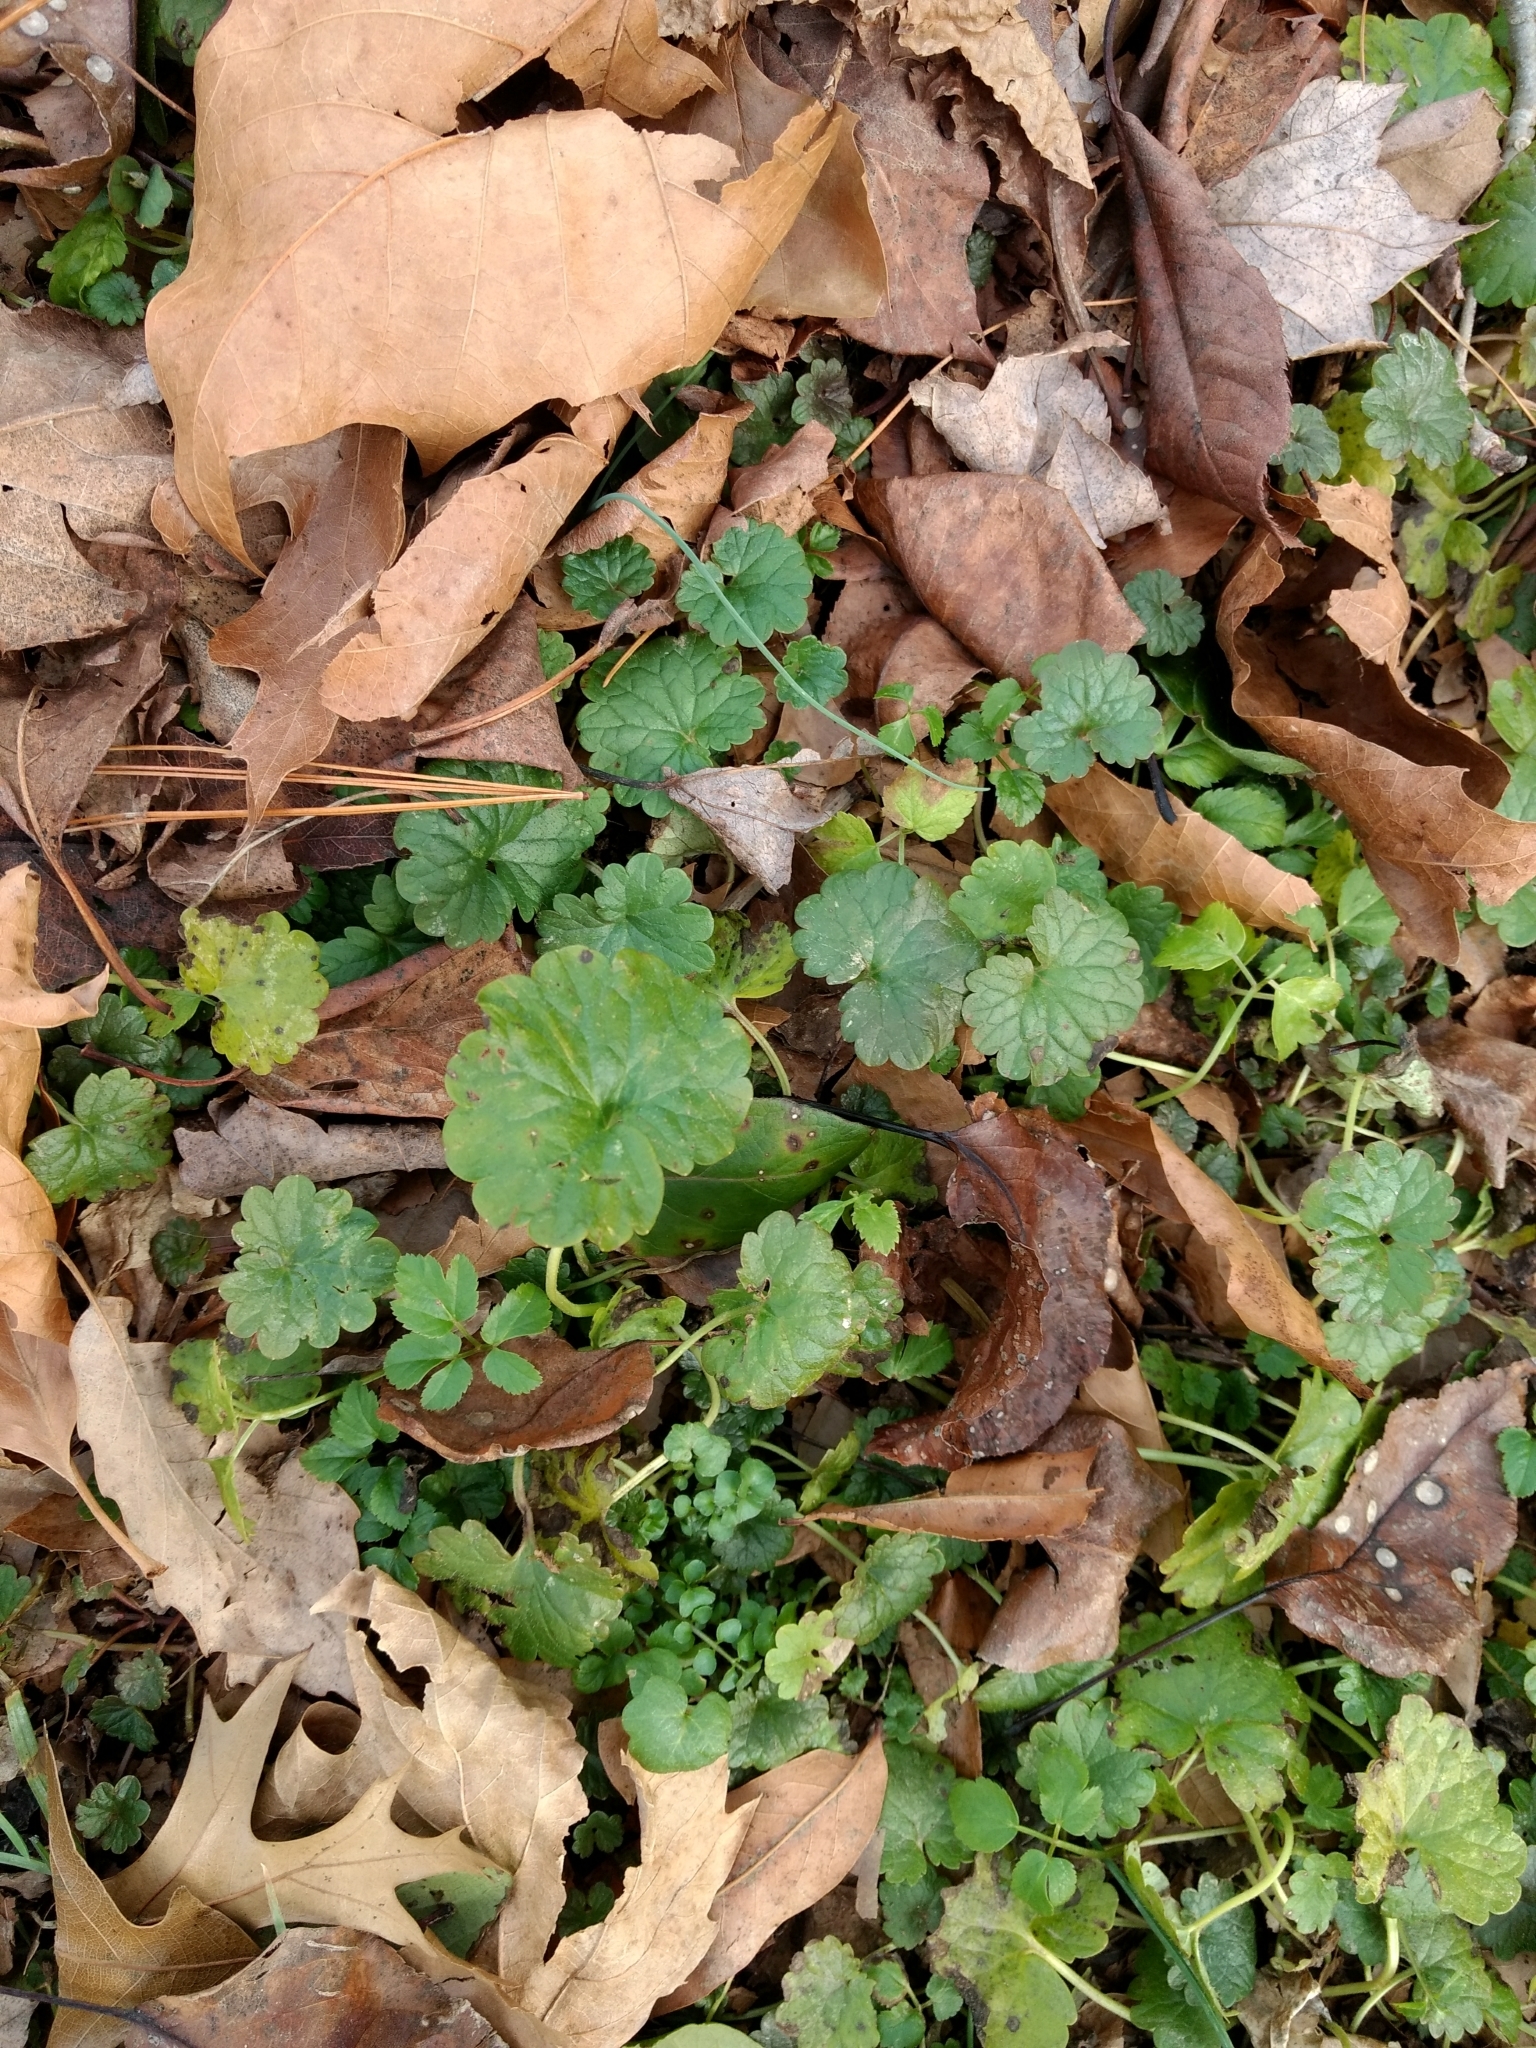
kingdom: Plantae
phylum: Tracheophyta
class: Magnoliopsida
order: Lamiales
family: Lamiaceae
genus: Glechoma
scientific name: Glechoma hederacea
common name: Ground ivy
